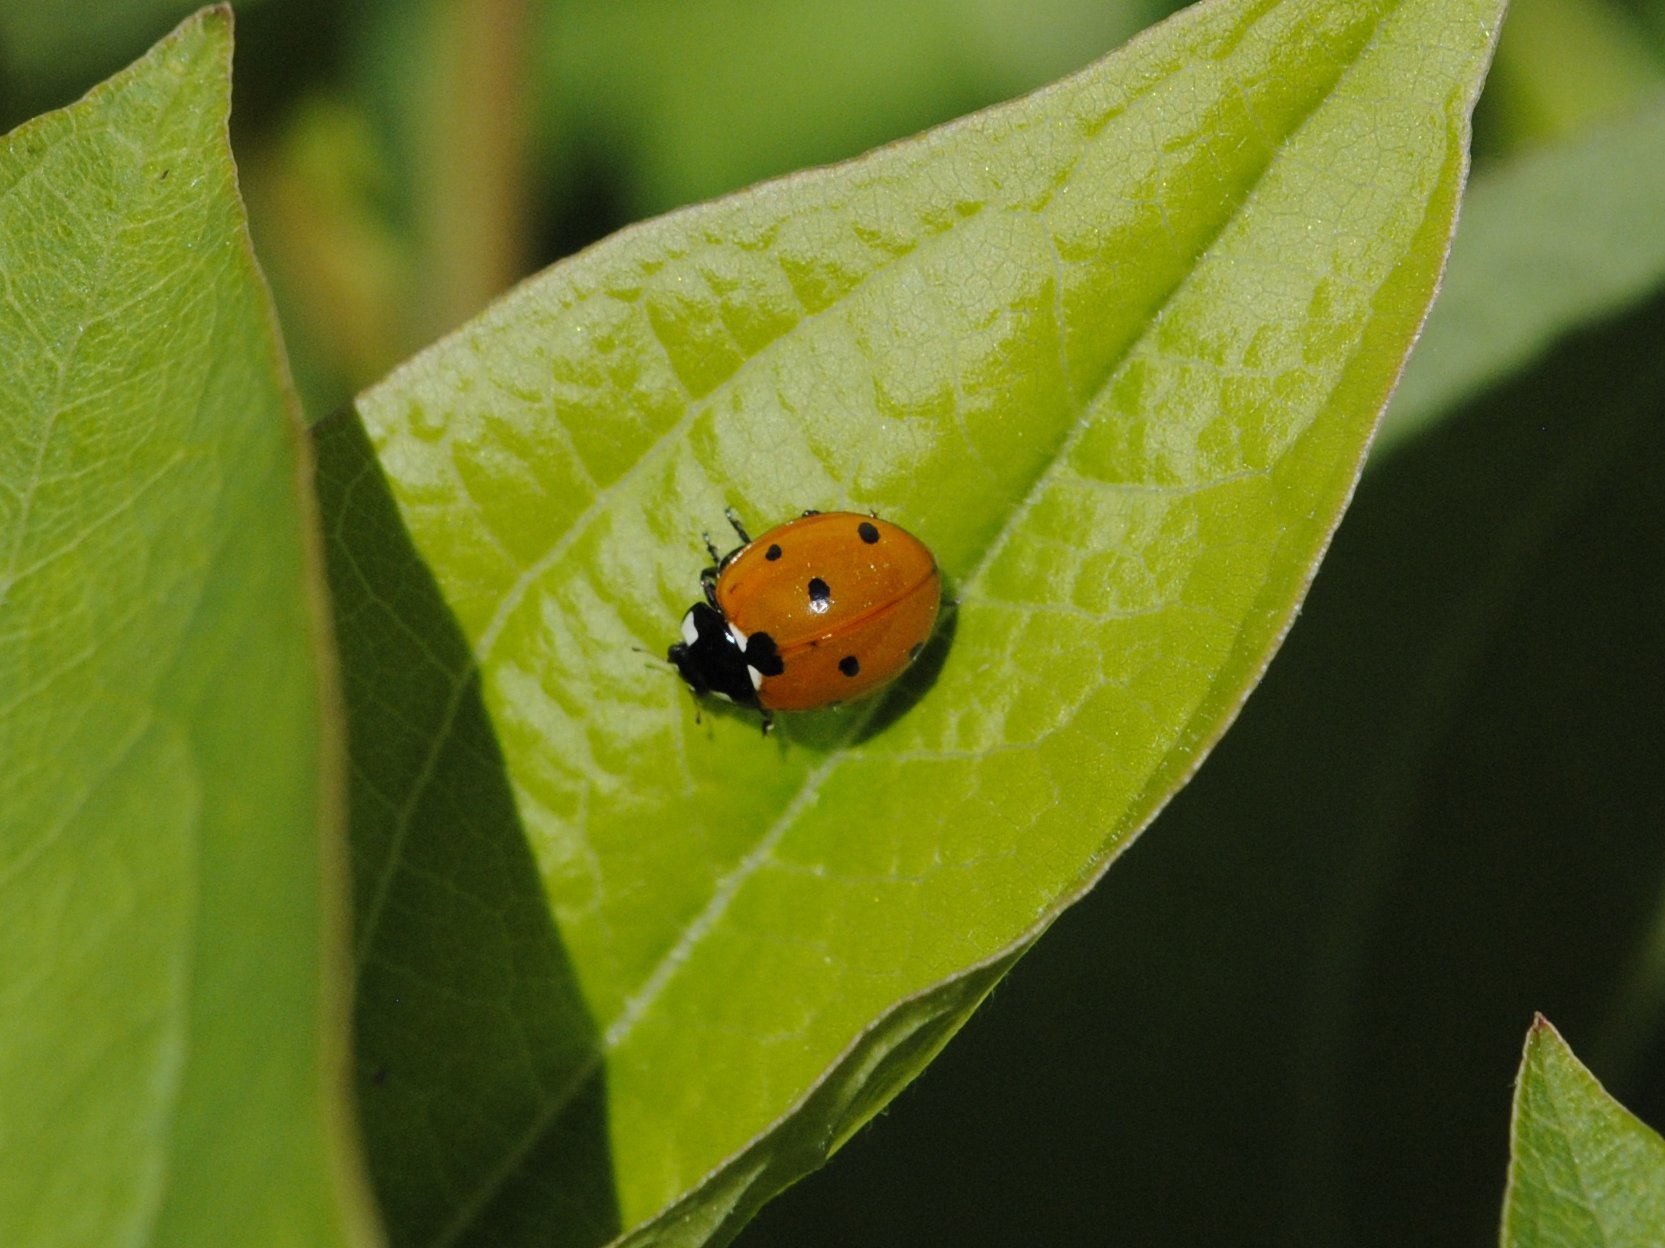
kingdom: Animalia
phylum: Arthropoda
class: Insecta
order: Coleoptera
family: Coccinellidae
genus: Coccinella
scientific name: Coccinella septempunctata
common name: Sevenspotted lady beetle
